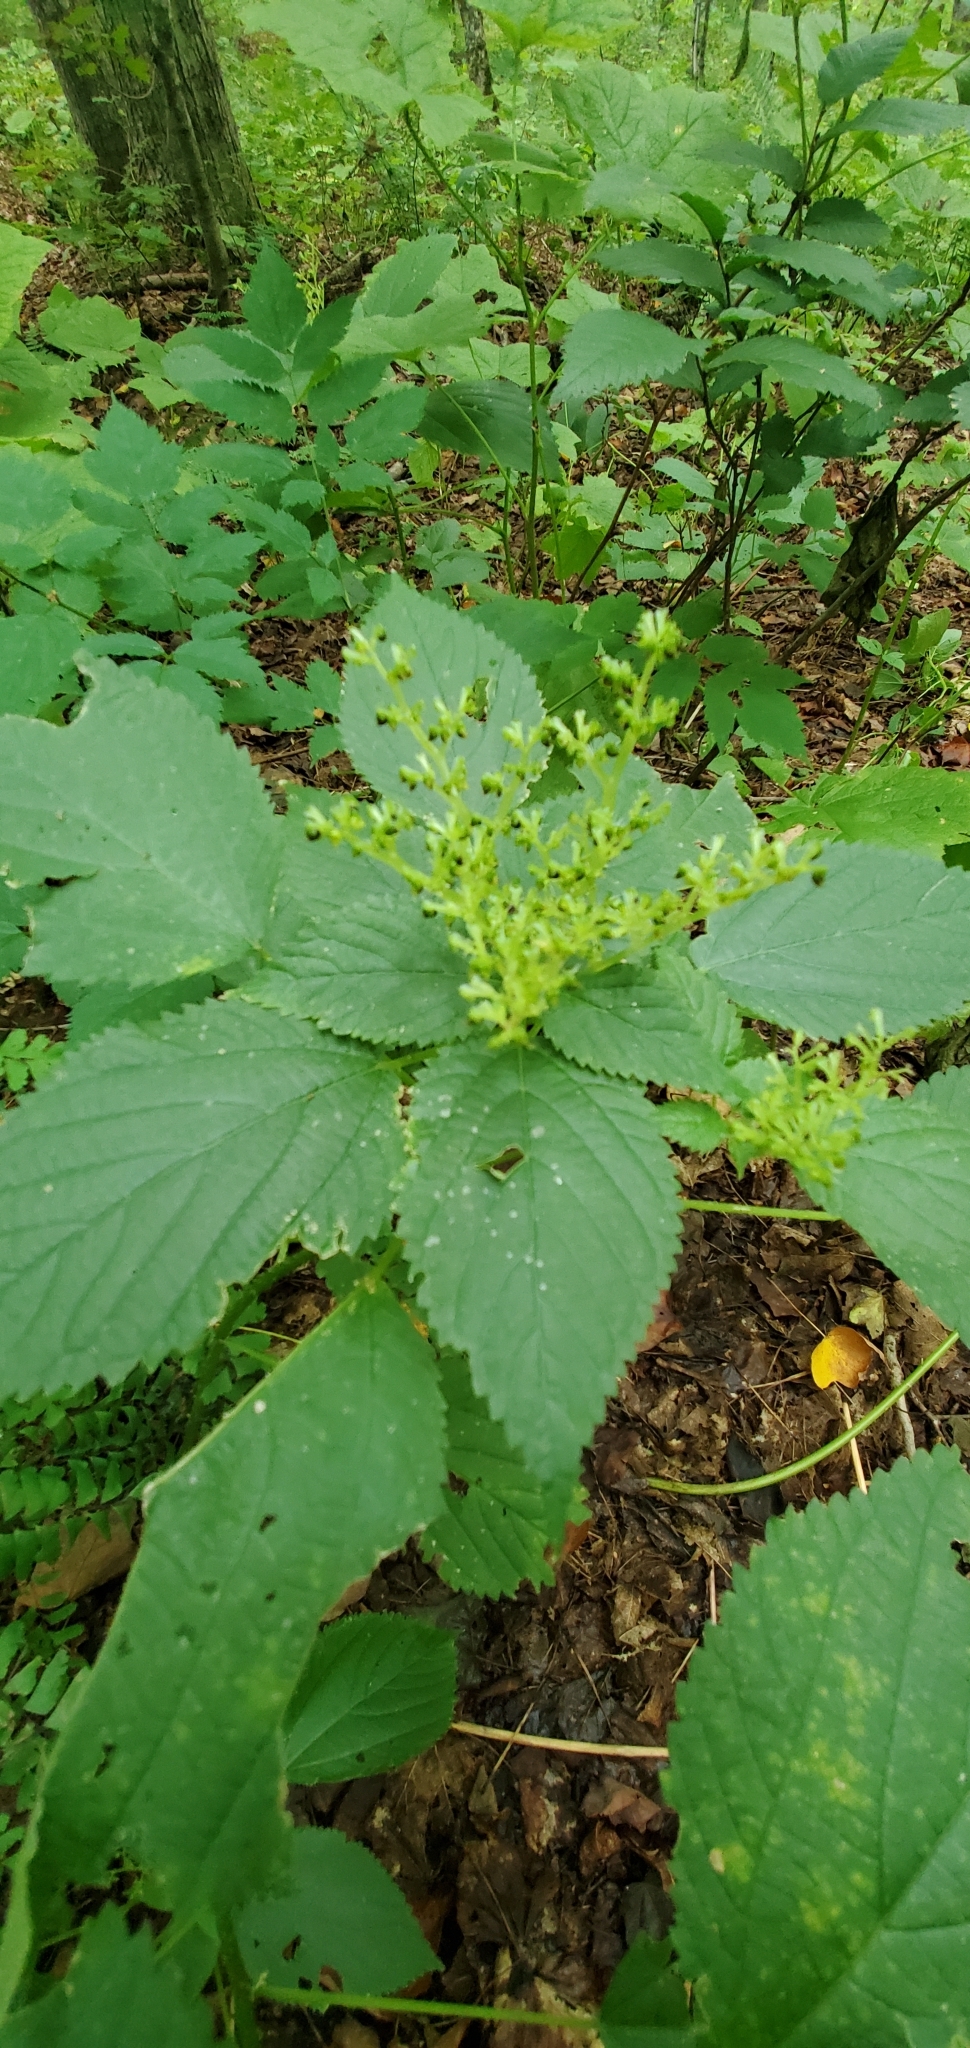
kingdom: Plantae
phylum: Tracheophyta
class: Magnoliopsida
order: Rosales
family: Urticaceae
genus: Laportea
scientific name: Laportea canadensis
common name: Canada nettle
